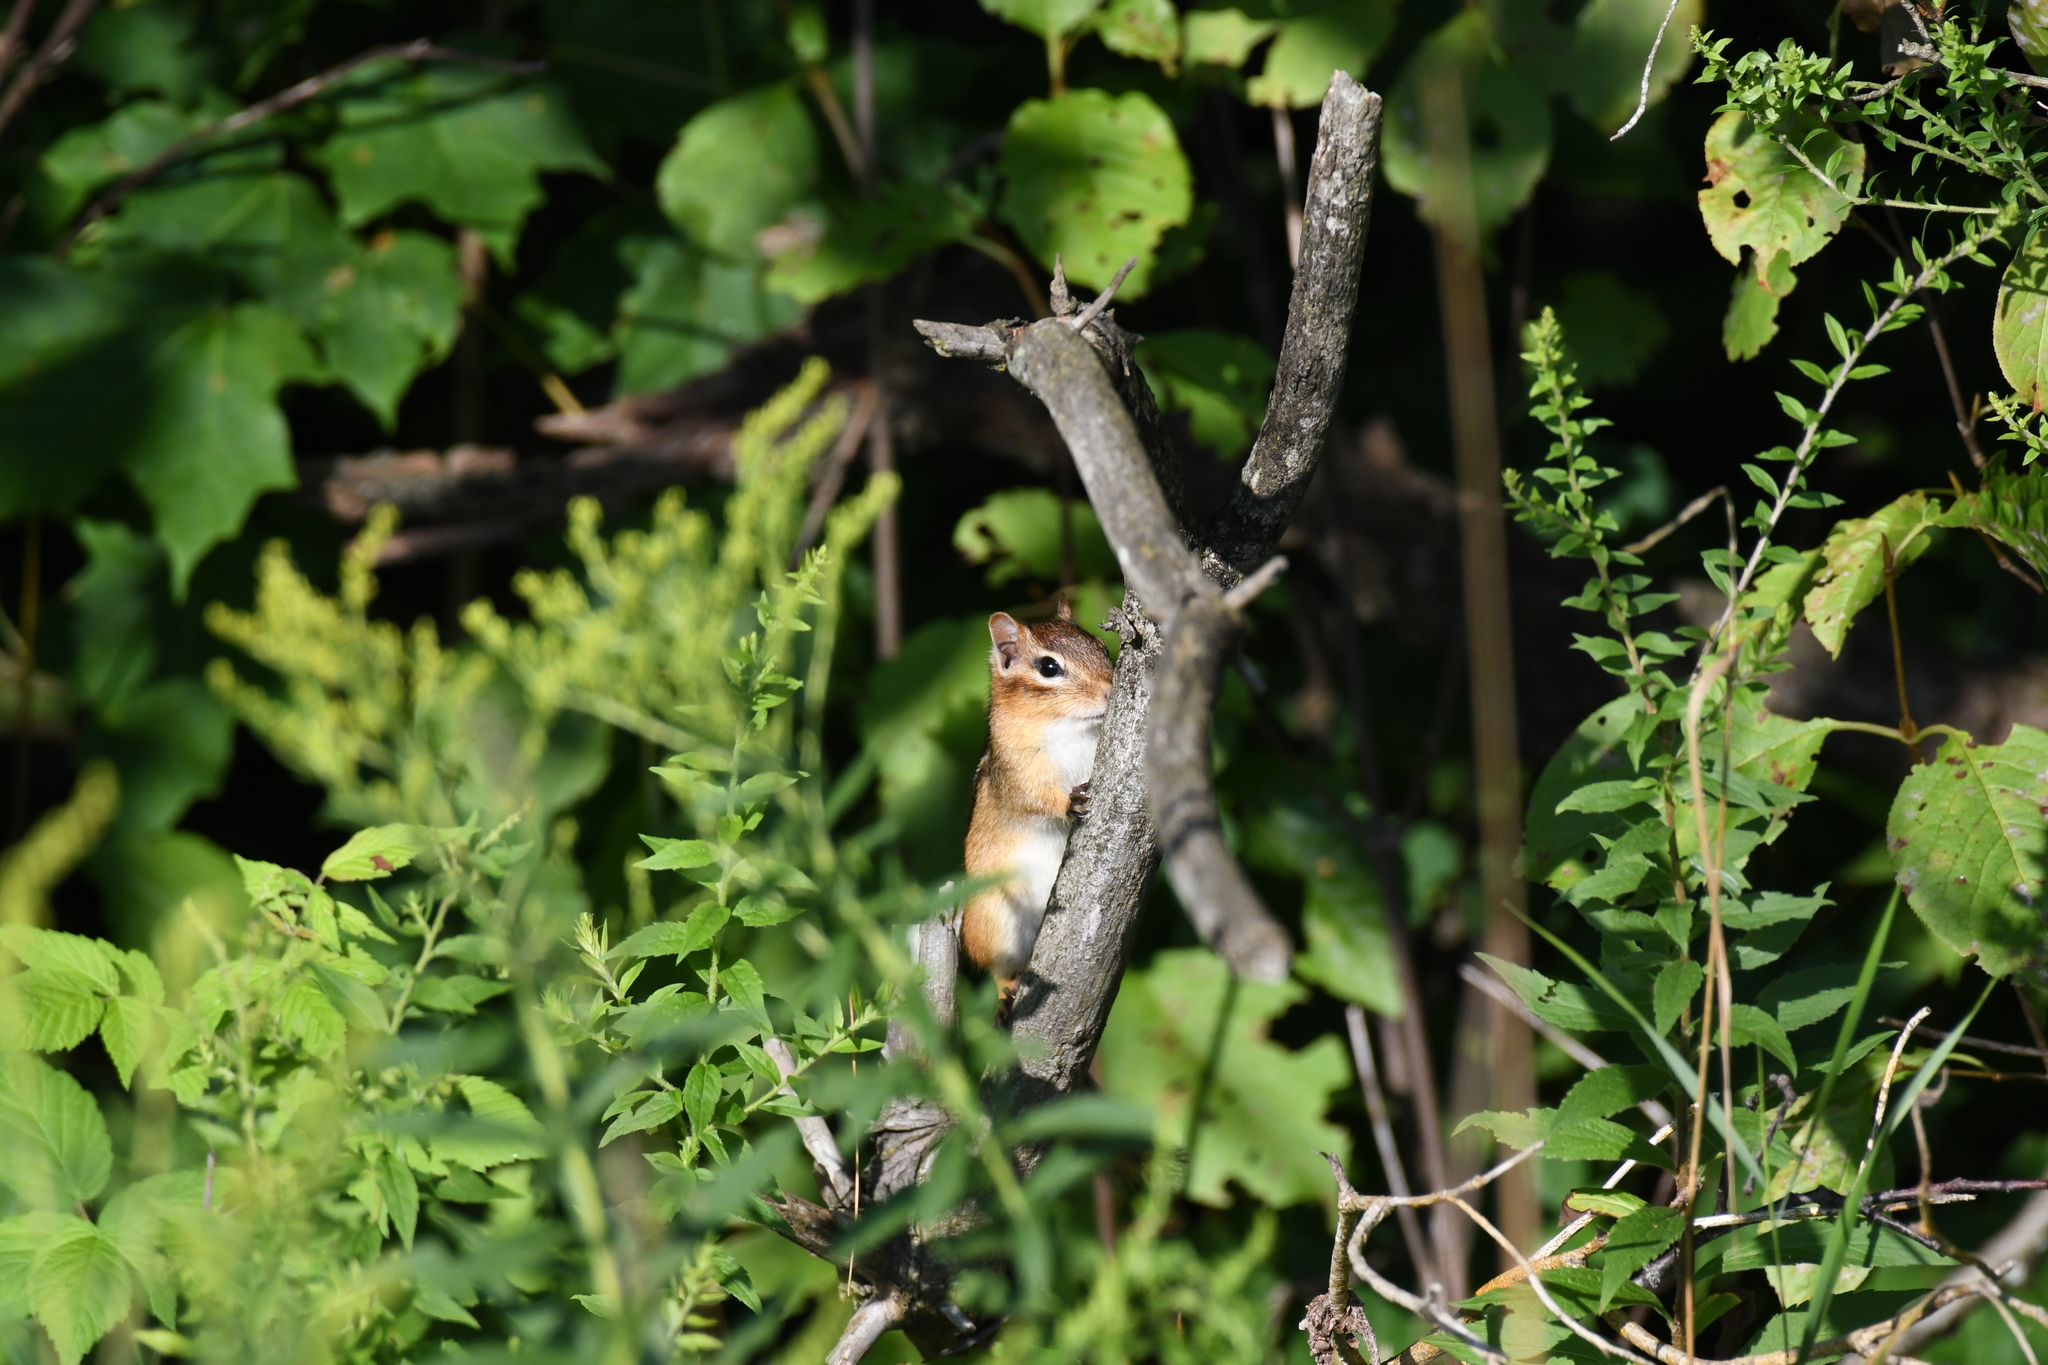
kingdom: Animalia
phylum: Chordata
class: Mammalia
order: Rodentia
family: Sciuridae
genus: Tamias
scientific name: Tamias striatus
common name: Eastern chipmunk
